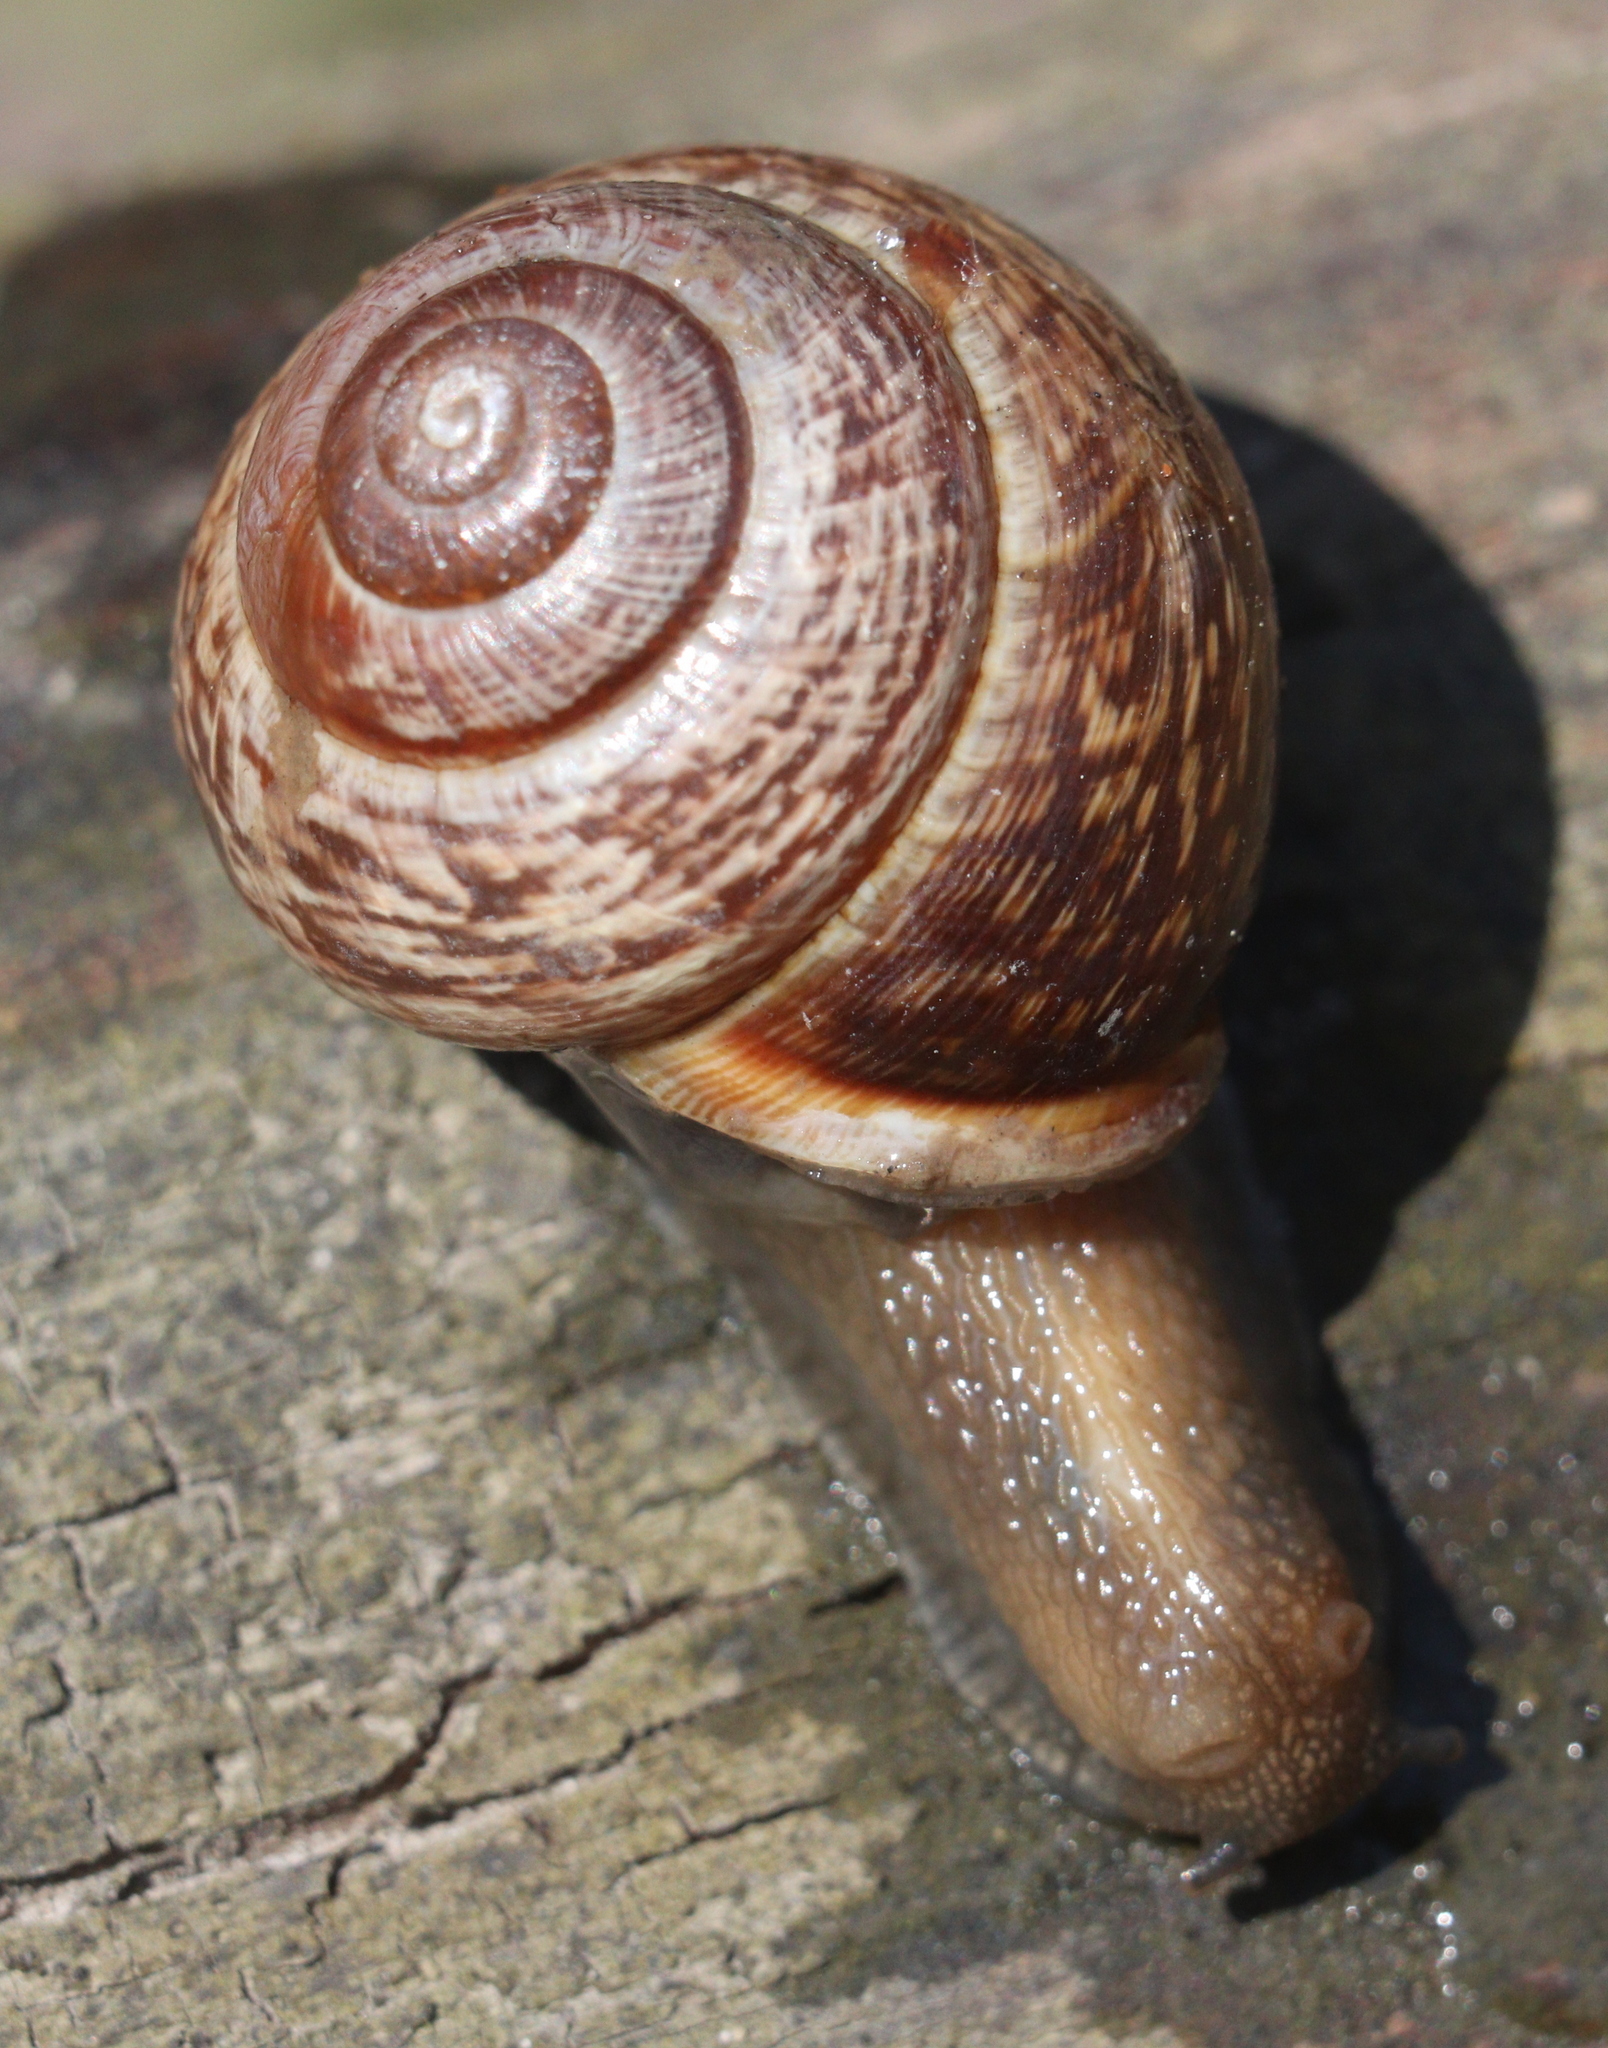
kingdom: Animalia
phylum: Mollusca
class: Gastropoda
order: Stylommatophora
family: Helicidae
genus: Arianta
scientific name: Arianta arbustorum
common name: Copse snail
